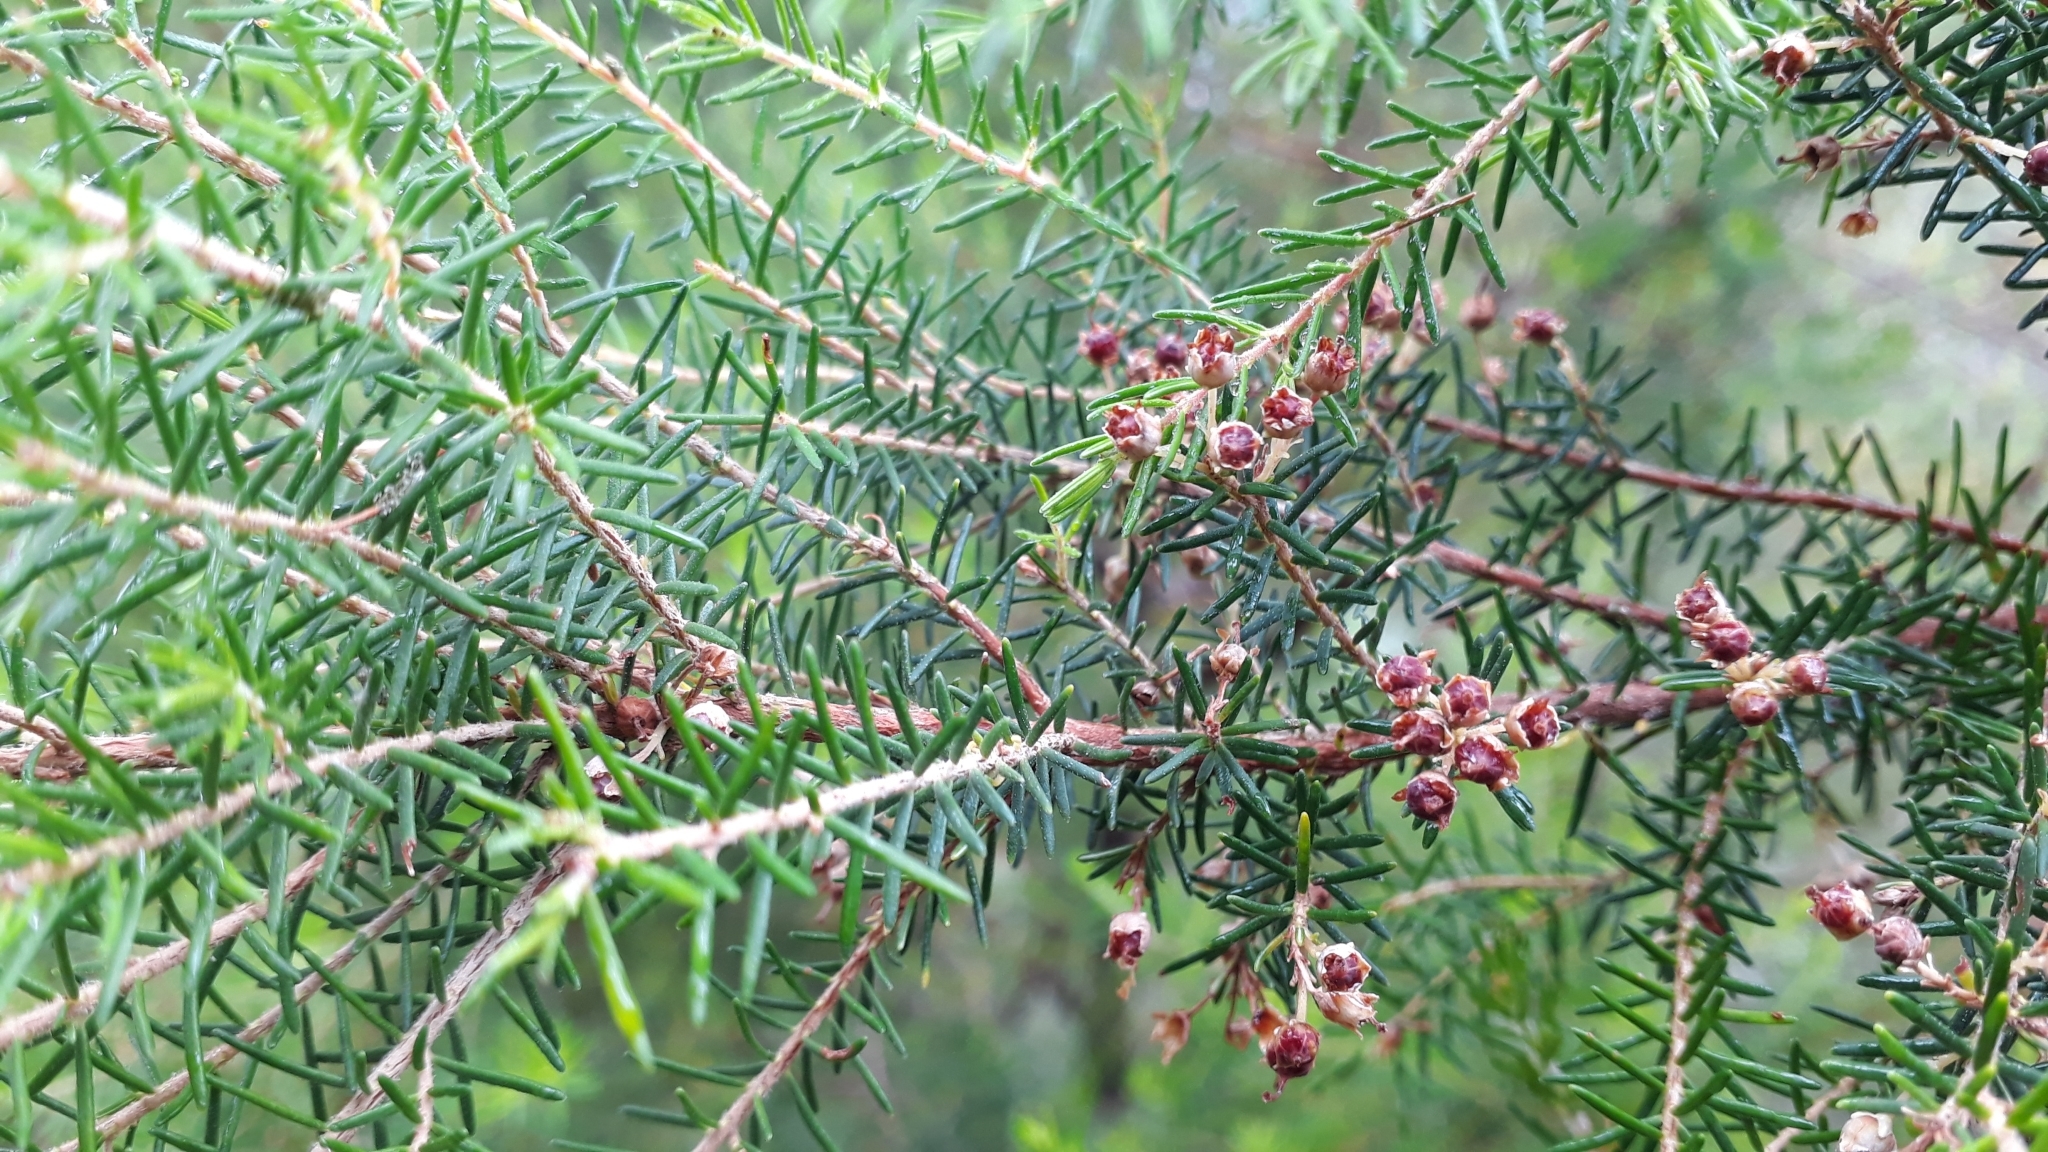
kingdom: Plantae
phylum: Tracheophyta
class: Magnoliopsida
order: Ericales
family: Ericaceae
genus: Erica
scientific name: Erica platycodon
